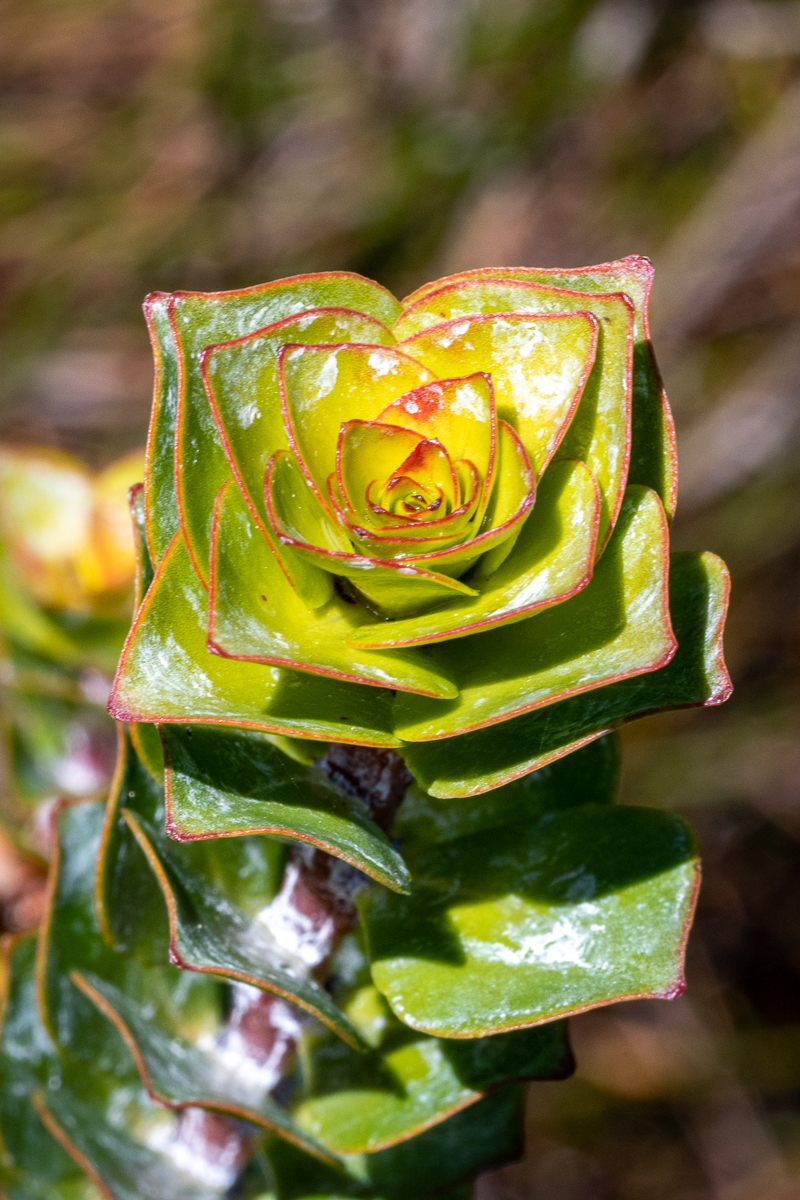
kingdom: Plantae
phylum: Tracheophyta
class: Magnoliopsida
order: Myrtales
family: Penaeaceae
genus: Saltera
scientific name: Saltera sarcocolla
